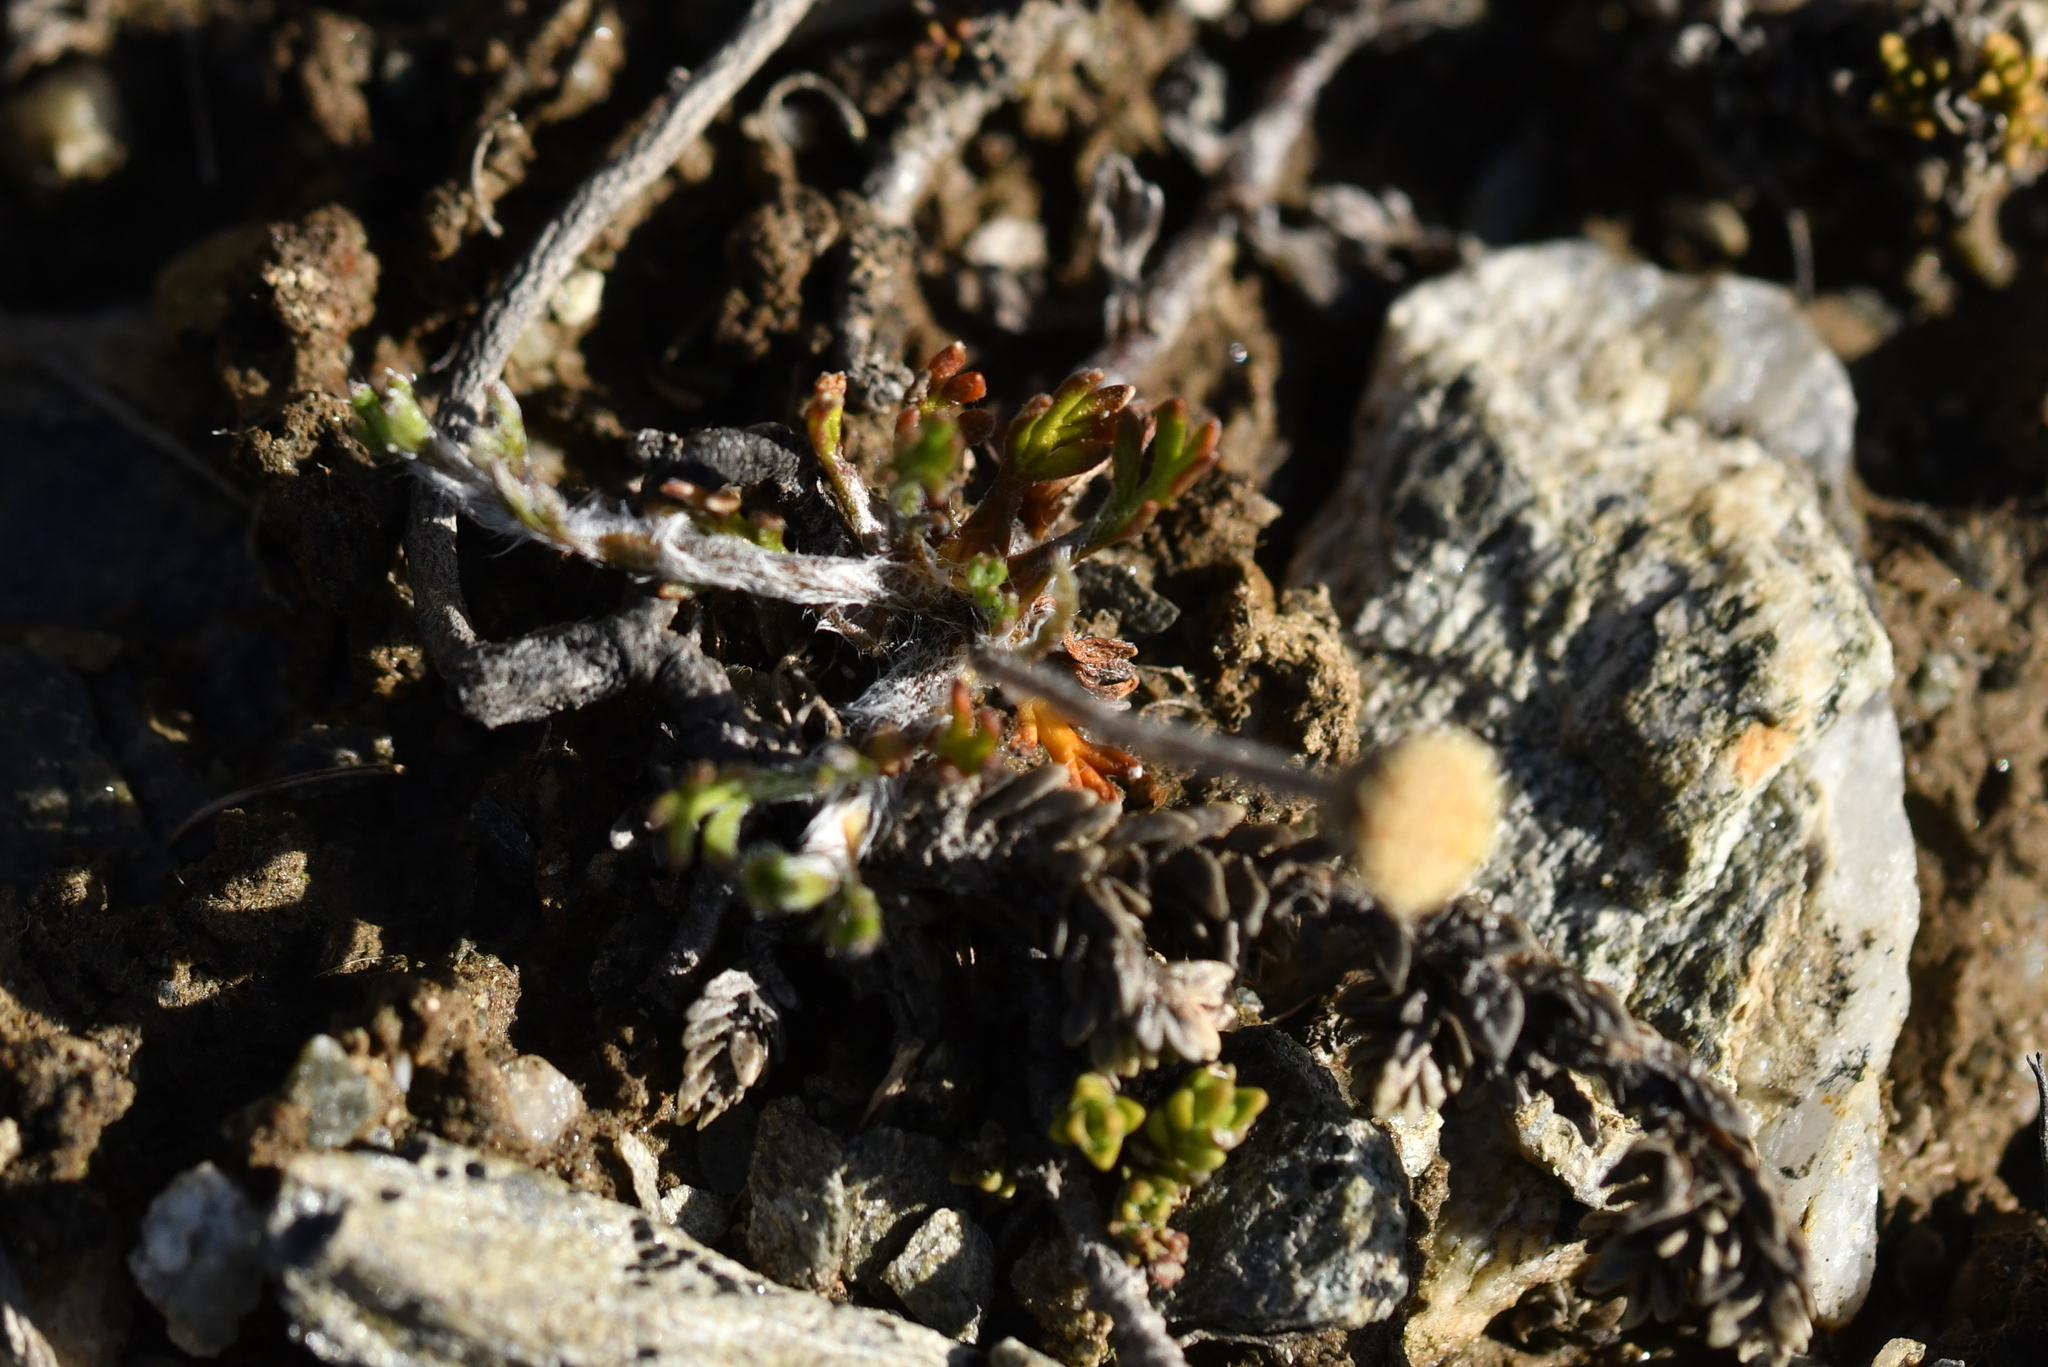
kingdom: Plantae
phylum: Tracheophyta
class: Magnoliopsida
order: Asterales
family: Asteraceae
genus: Leptinella
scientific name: Leptinella pectinata
